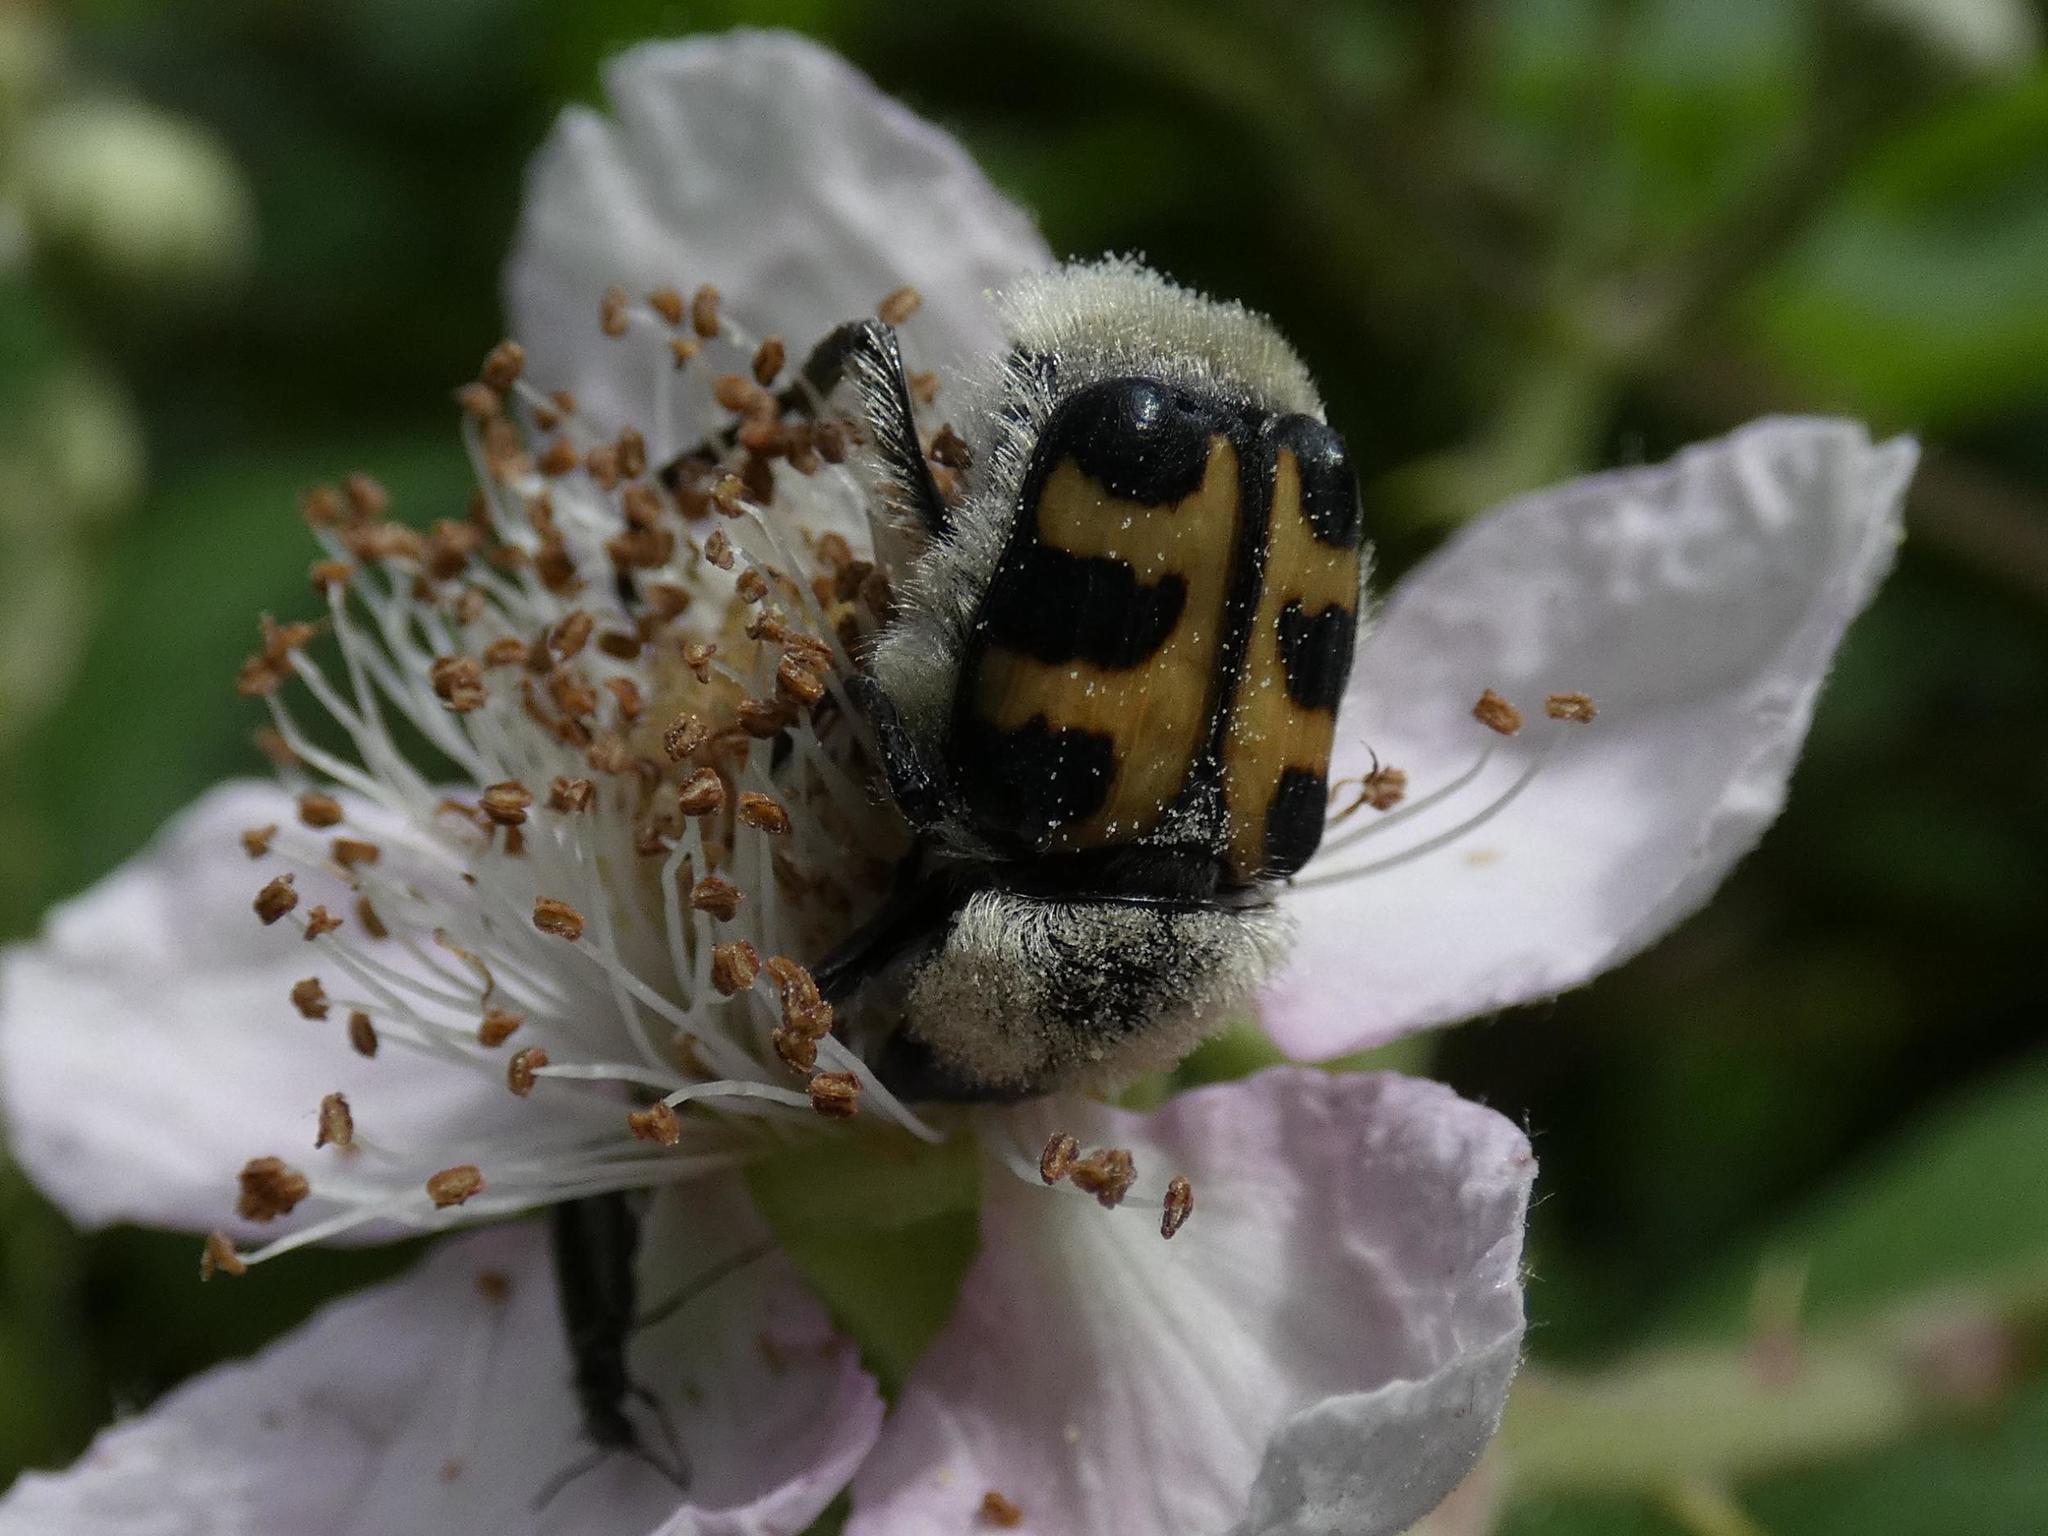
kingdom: Animalia
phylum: Arthropoda
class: Insecta
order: Coleoptera
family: Scarabaeidae
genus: Trichius
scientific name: Trichius gallicus
